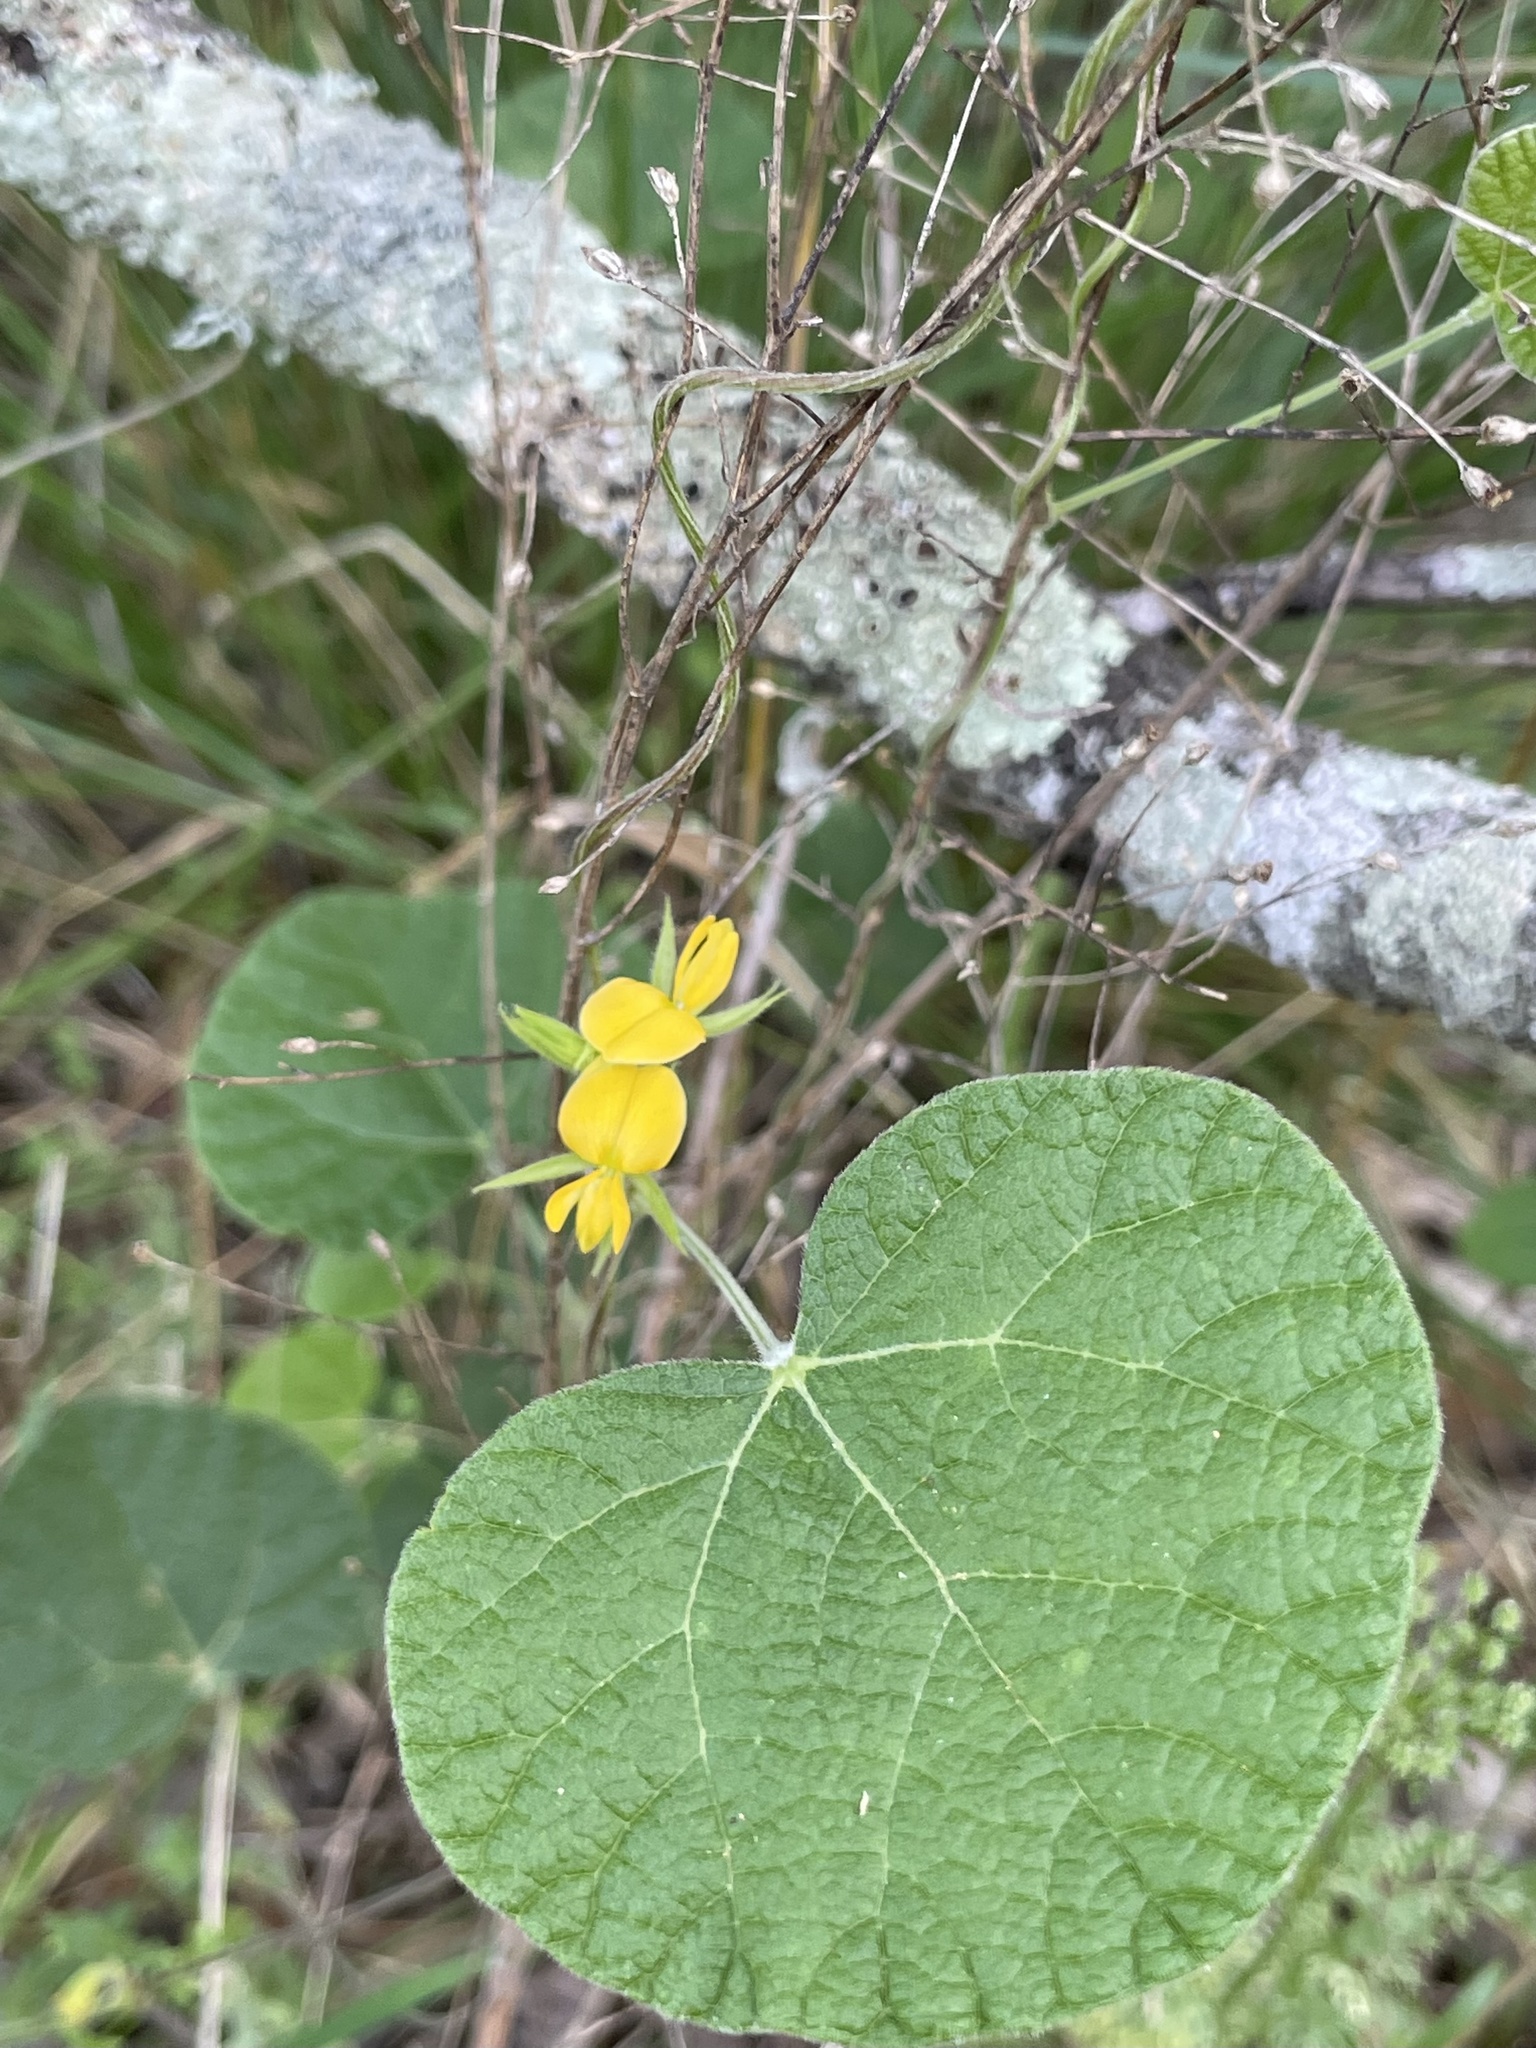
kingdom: Plantae
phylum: Tracheophyta
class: Magnoliopsida
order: Fabales
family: Fabaceae
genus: Rhynchosia
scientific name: Rhynchosia americana
